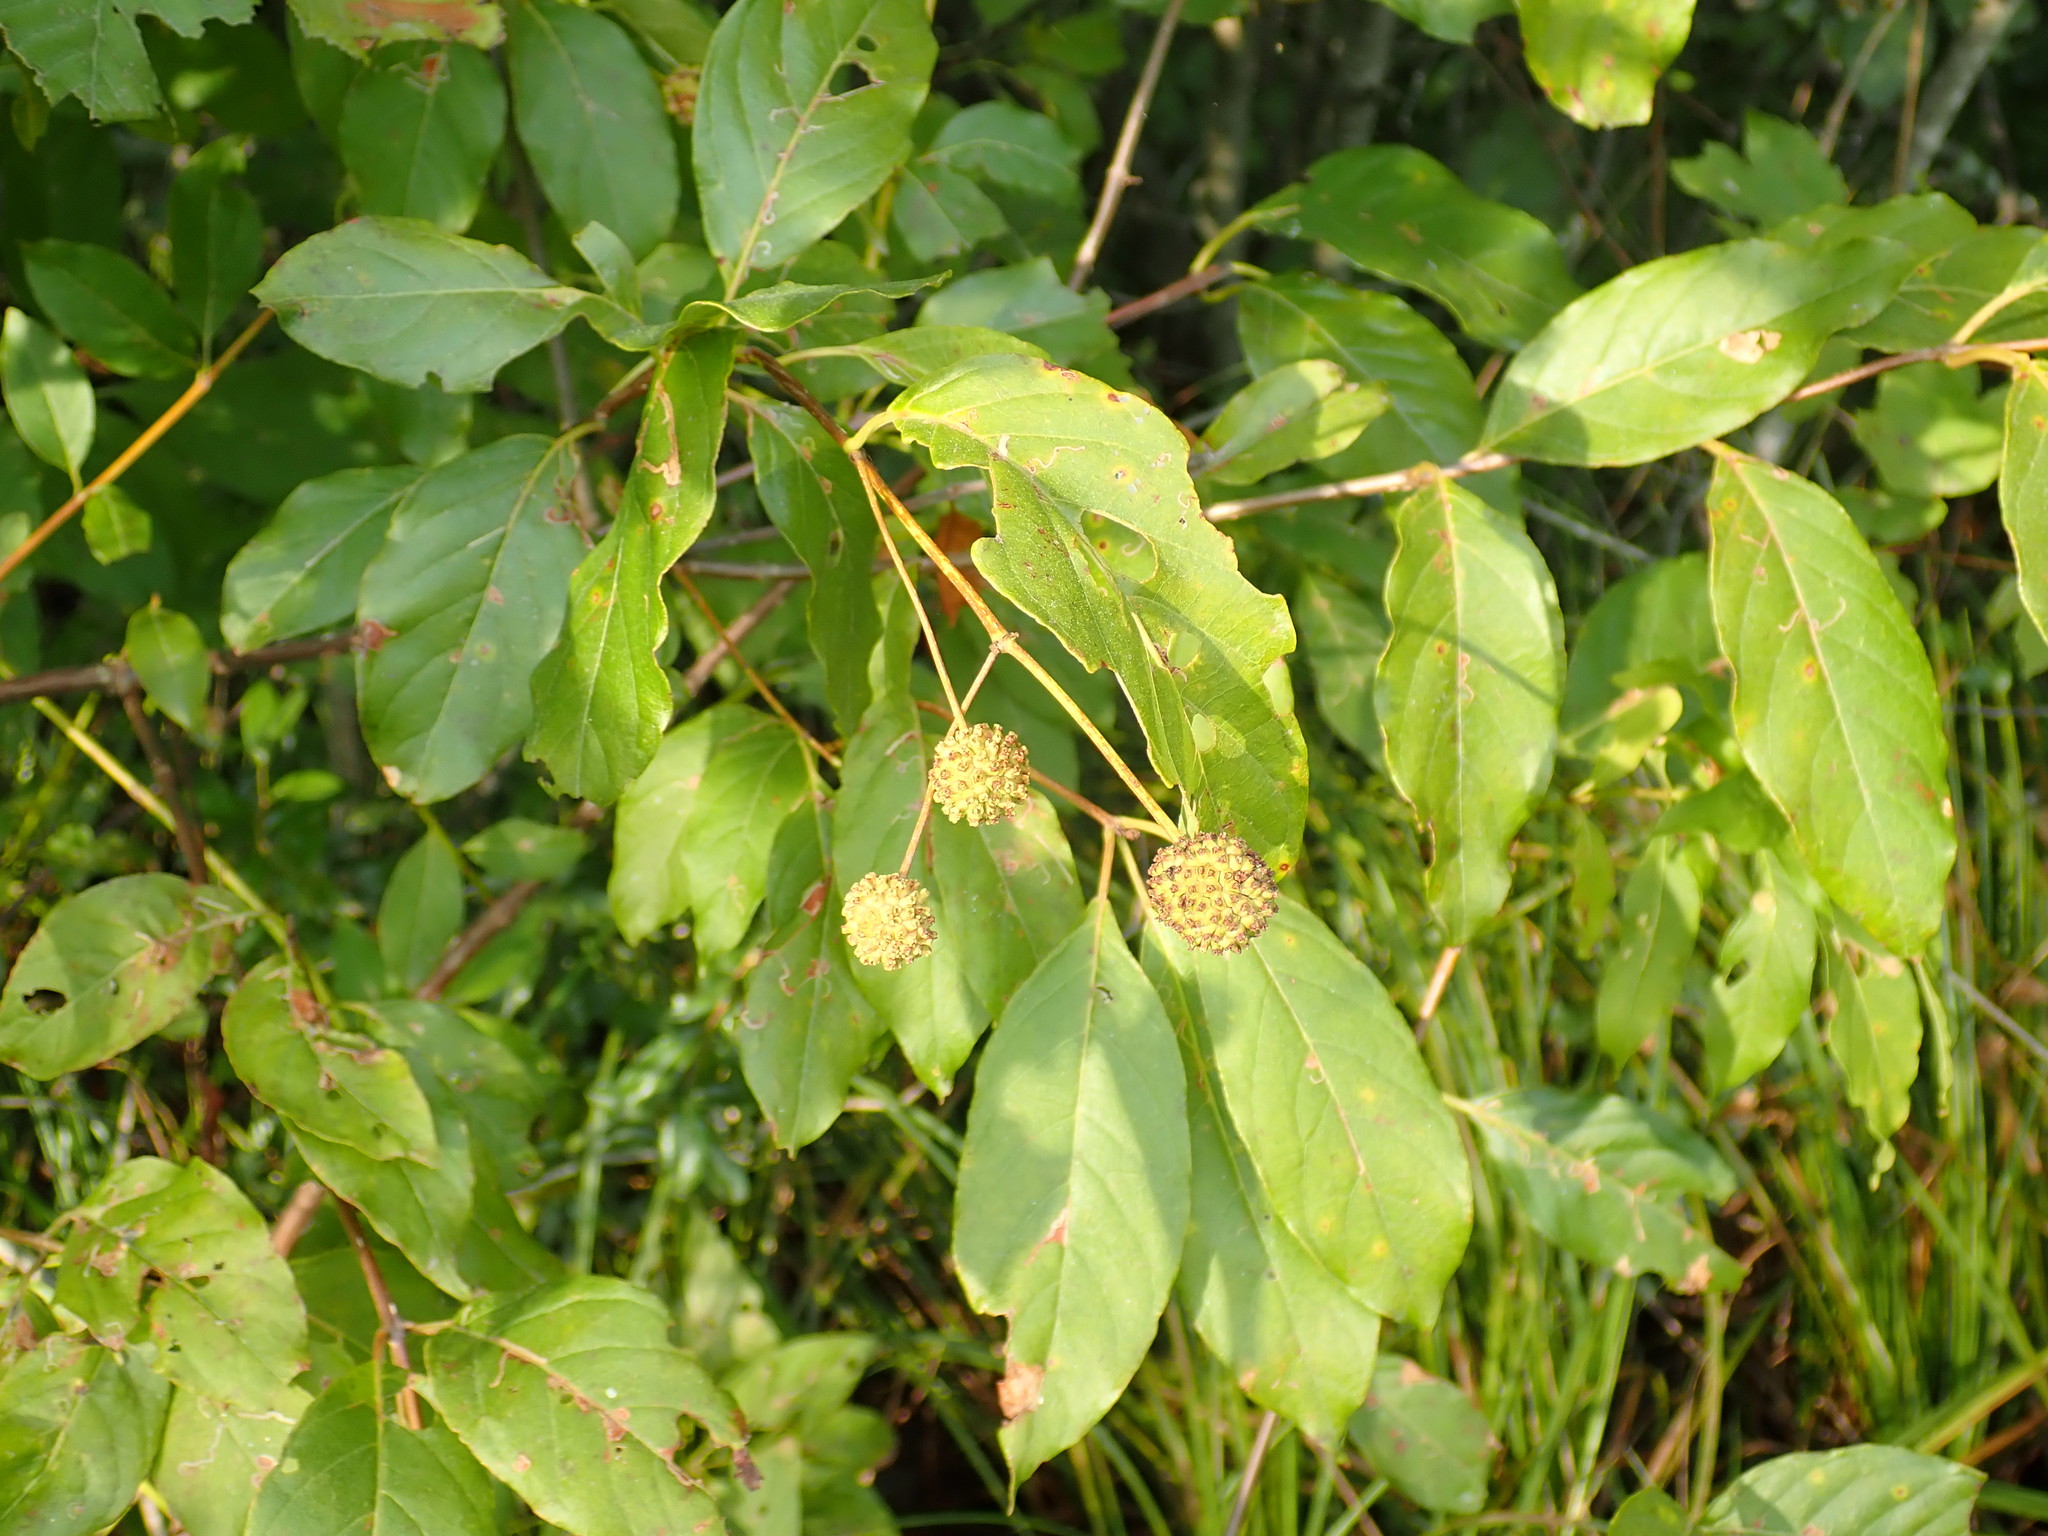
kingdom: Plantae
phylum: Tracheophyta
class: Magnoliopsida
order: Gentianales
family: Rubiaceae
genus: Cephalanthus
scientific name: Cephalanthus occidentalis
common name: Button-willow
